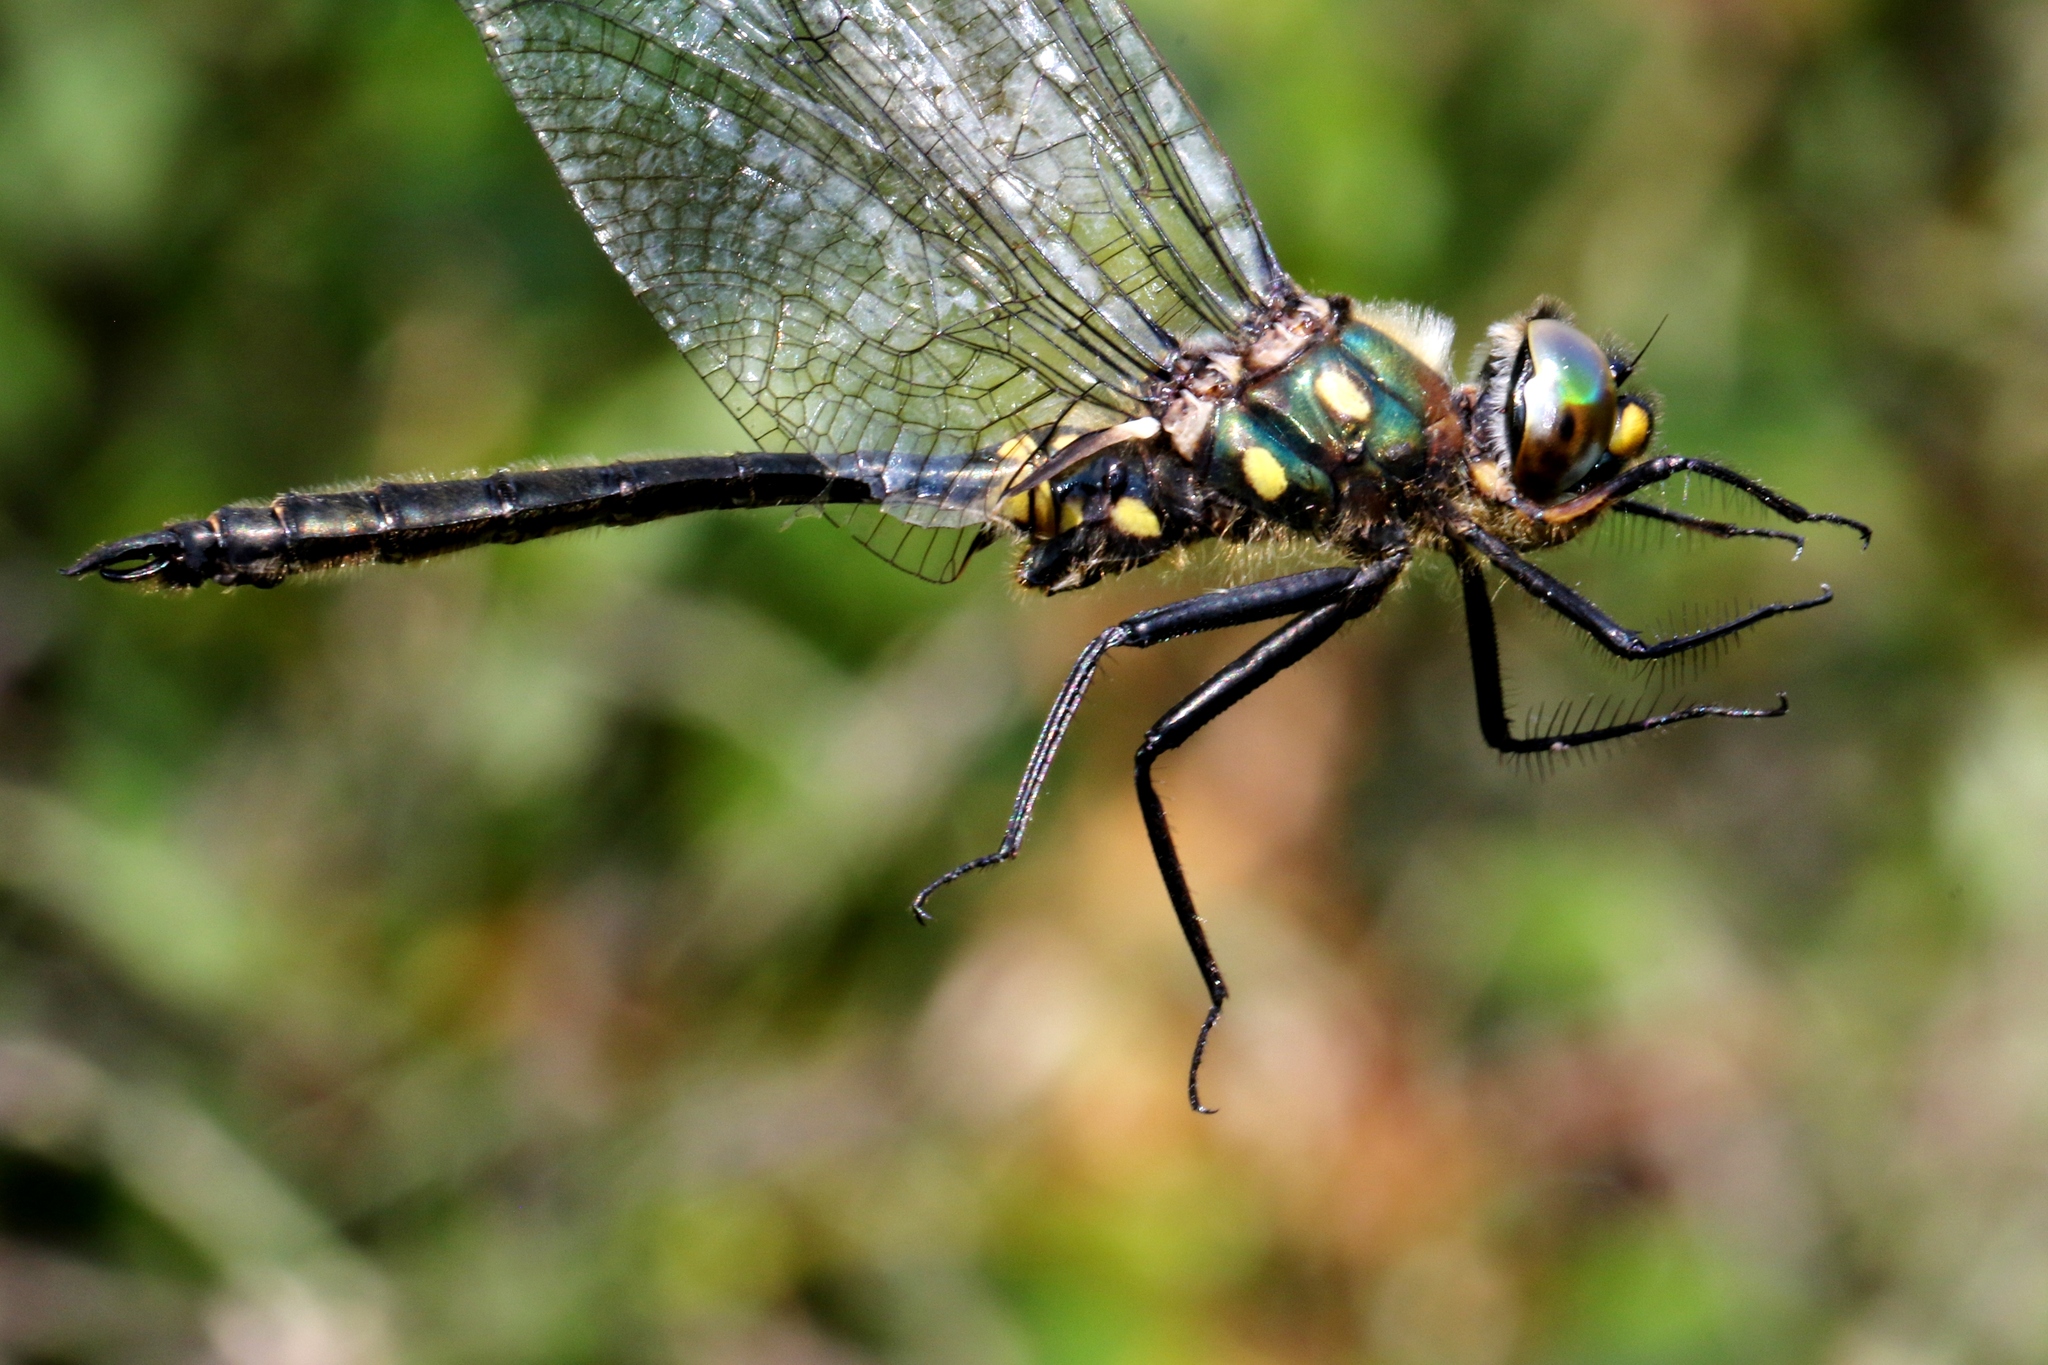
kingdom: Animalia
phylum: Arthropoda
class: Insecta
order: Odonata
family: Corduliidae
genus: Somatochlora
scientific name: Somatochlora minor
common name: Ocellated emerald
